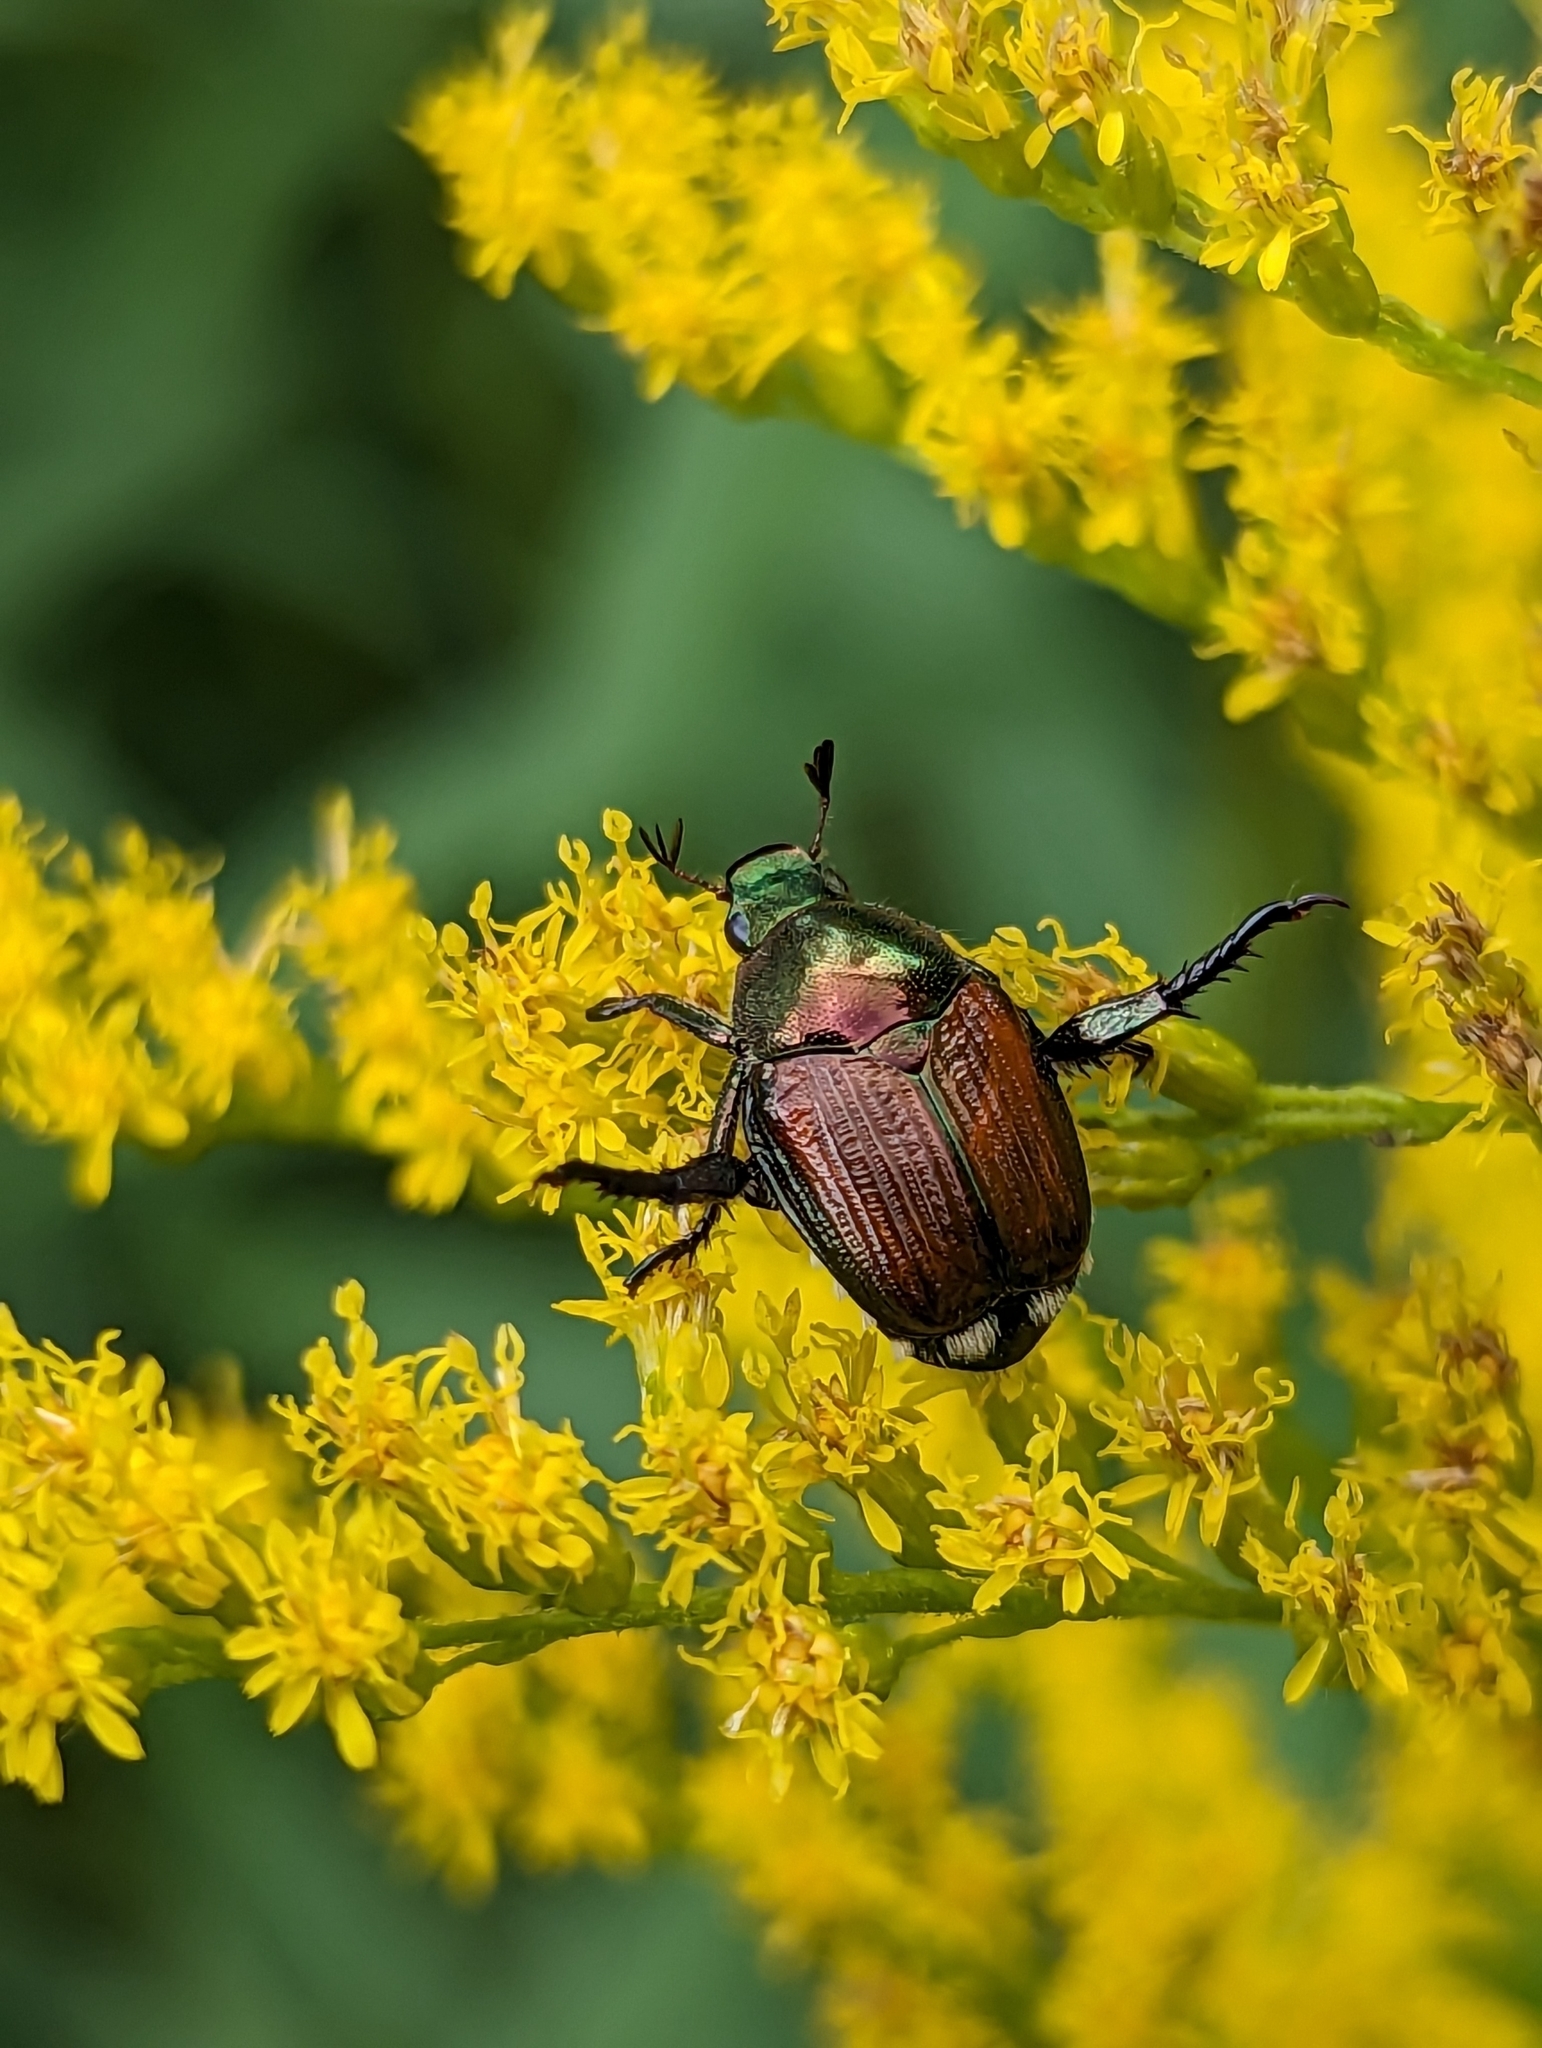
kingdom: Animalia
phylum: Arthropoda
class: Insecta
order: Coleoptera
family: Scarabaeidae
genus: Popillia
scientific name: Popillia japonica
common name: Japanese beetle
